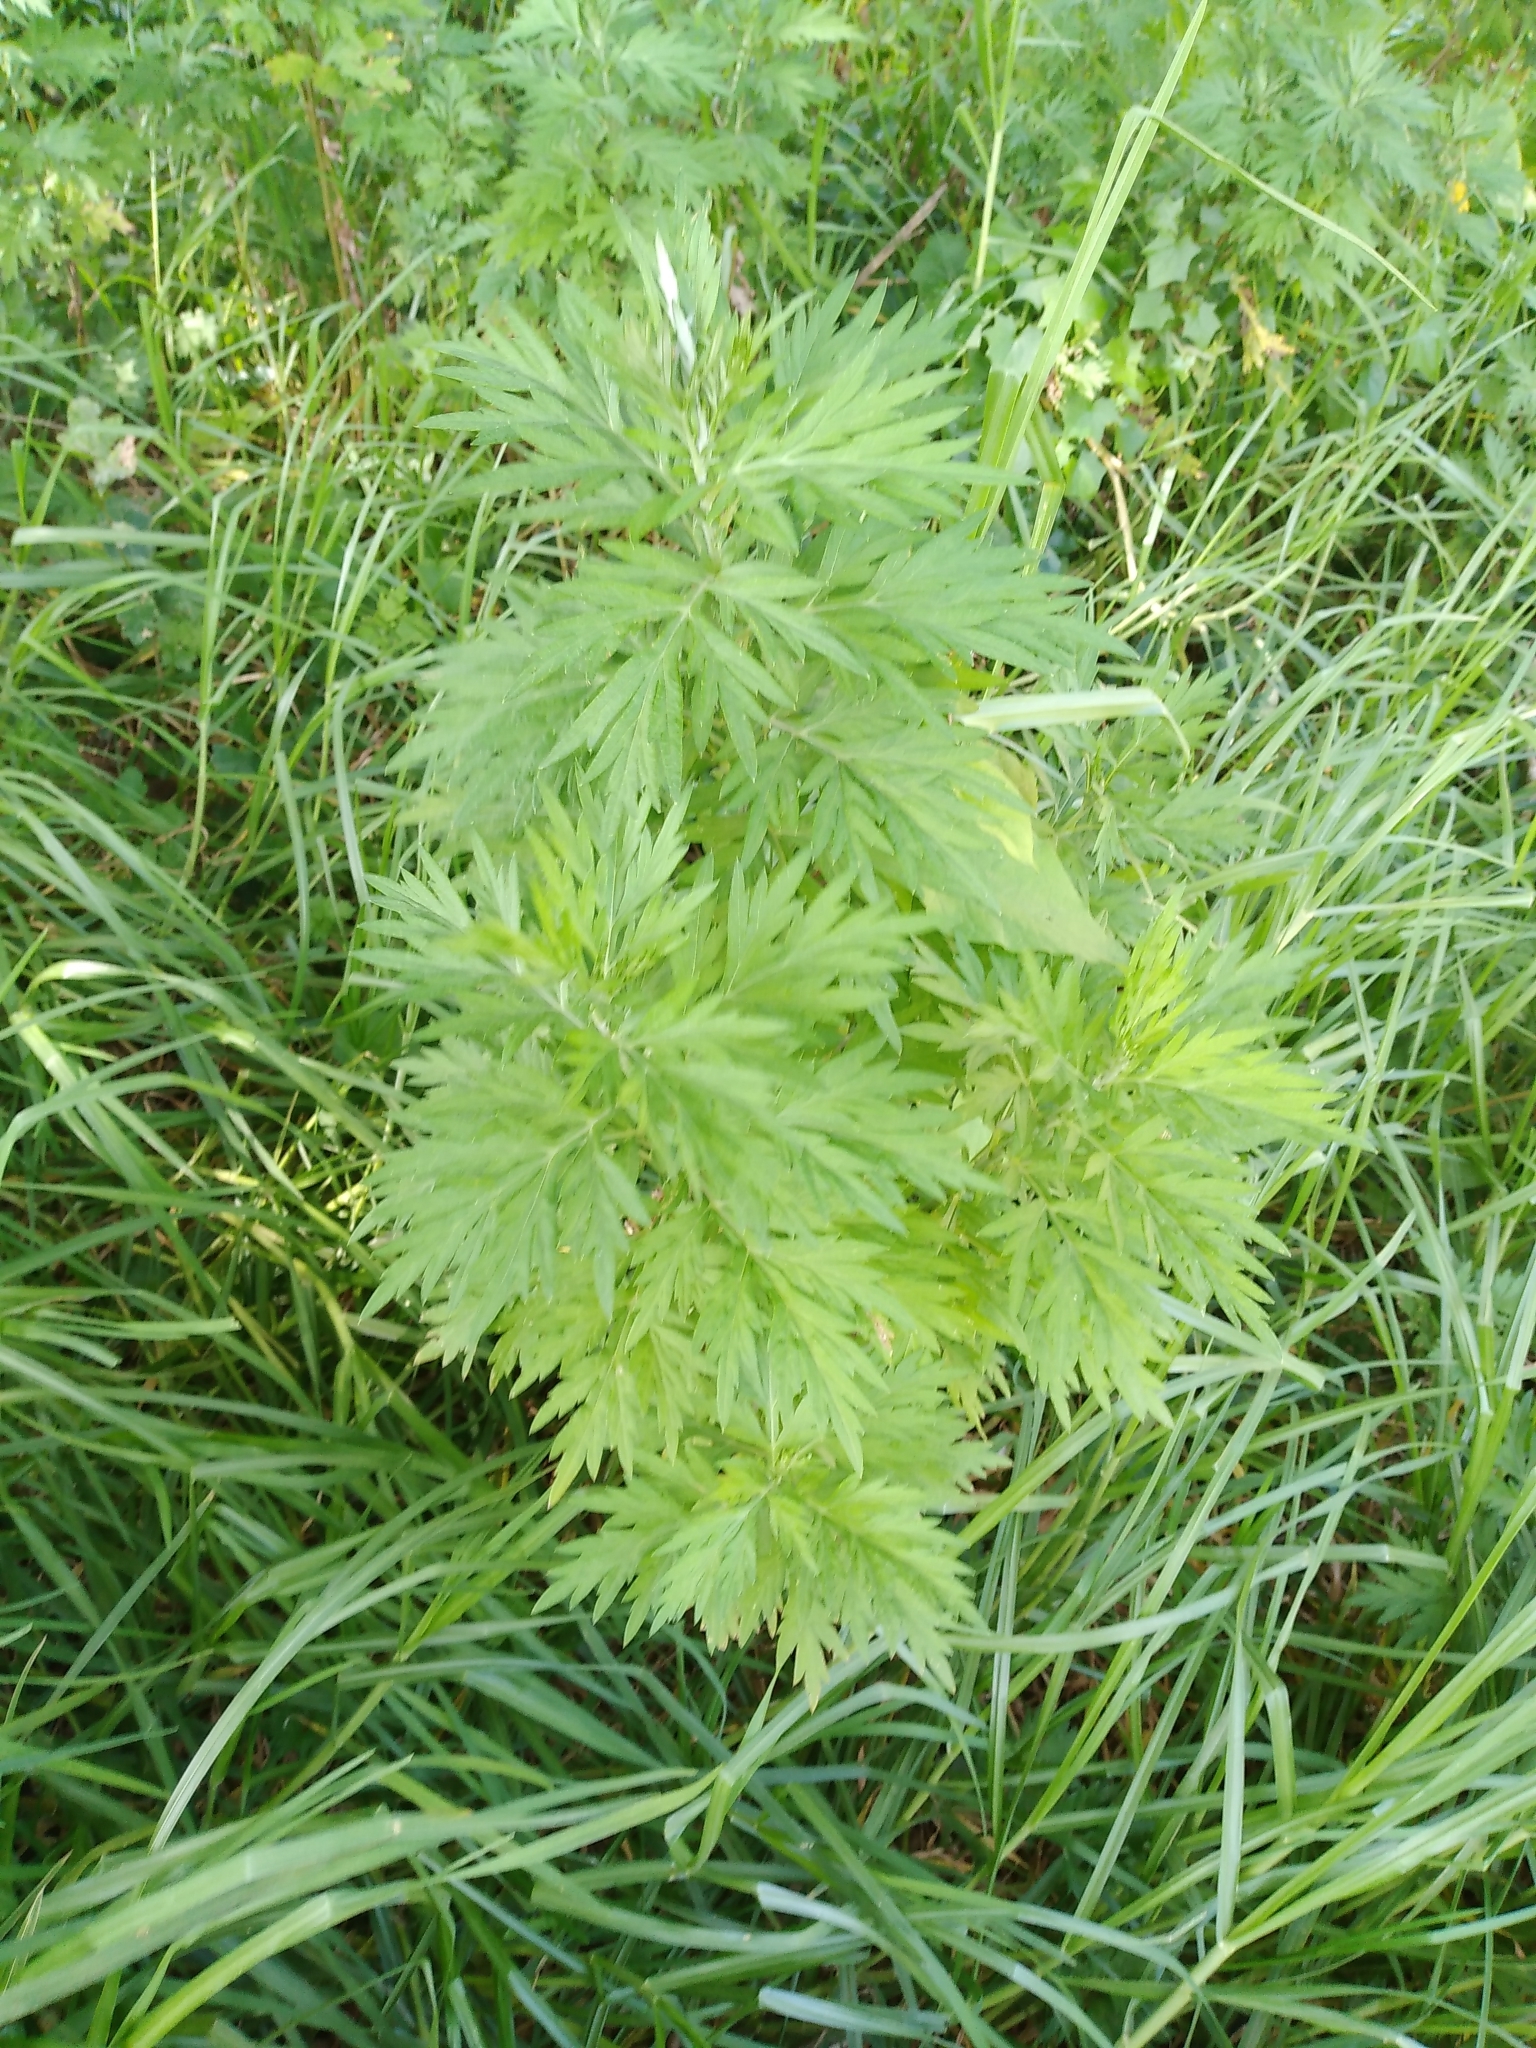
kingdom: Plantae
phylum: Tracheophyta
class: Magnoliopsida
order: Asterales
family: Asteraceae
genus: Artemisia
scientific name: Artemisia vulgaris
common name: Mugwort
